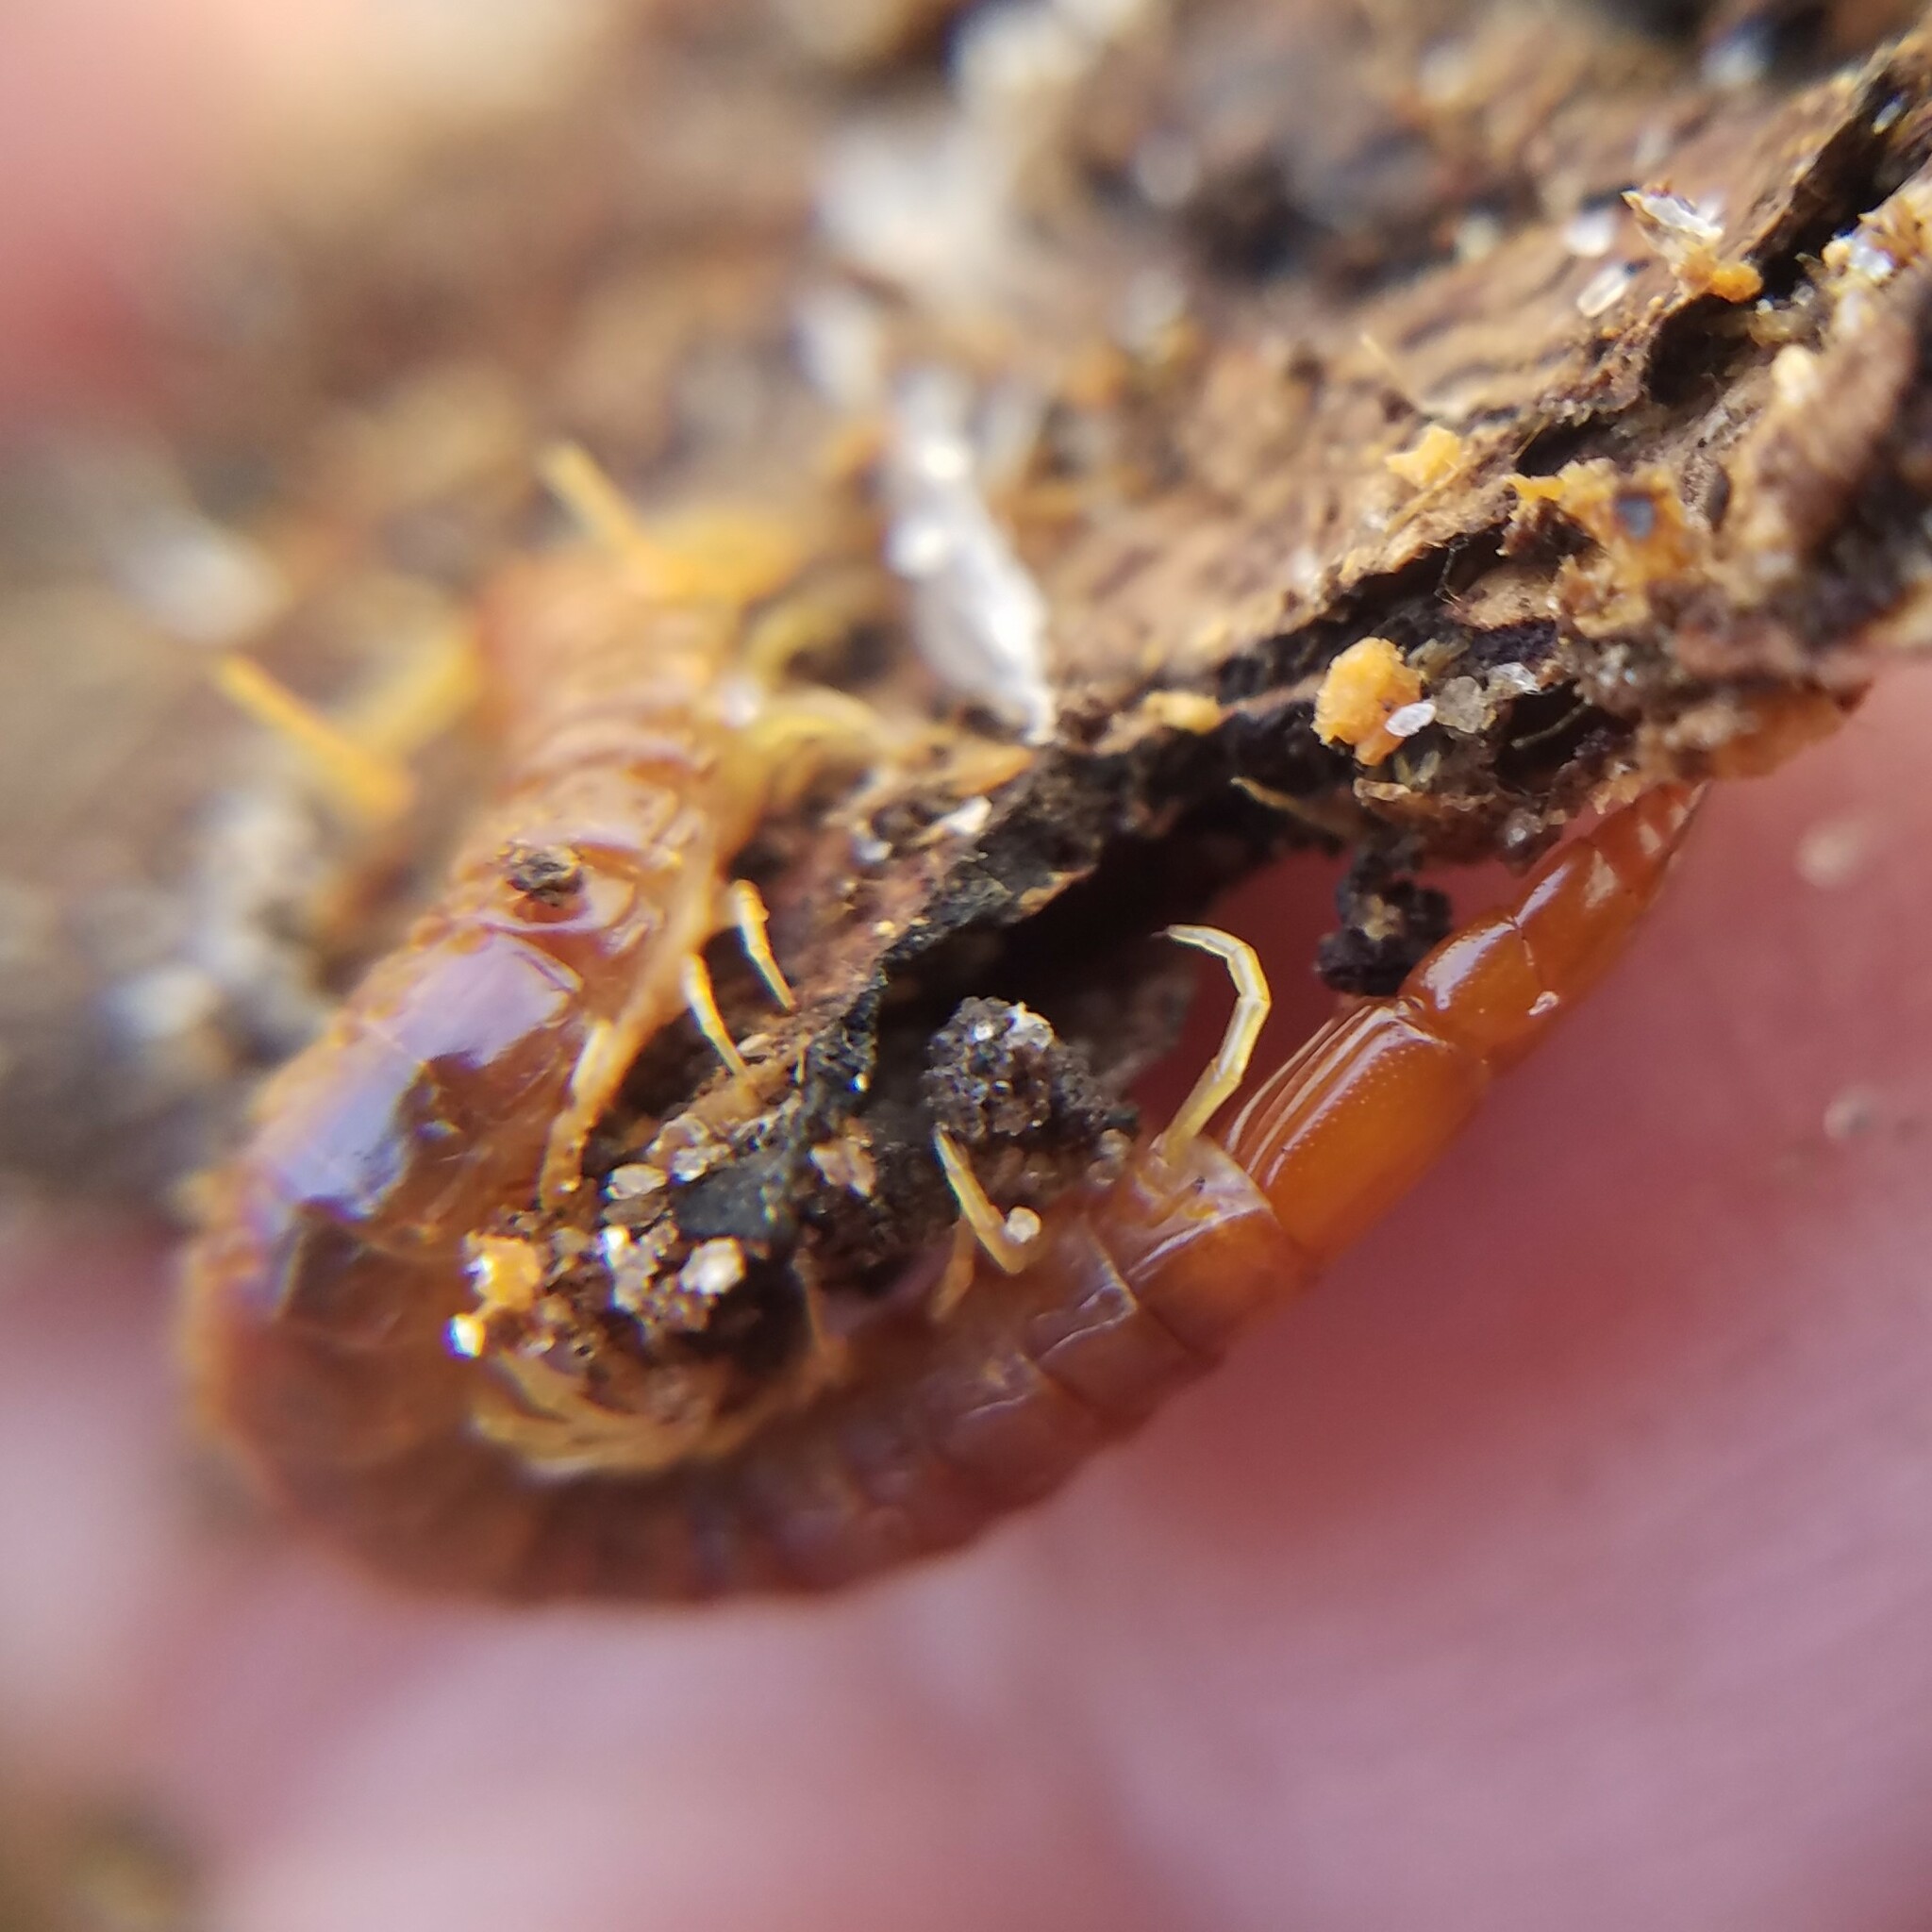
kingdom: Animalia
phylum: Arthropoda
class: Chilopoda
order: Scolopendromorpha
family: Cryptopidae
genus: Theatops
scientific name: Theatops posticus
